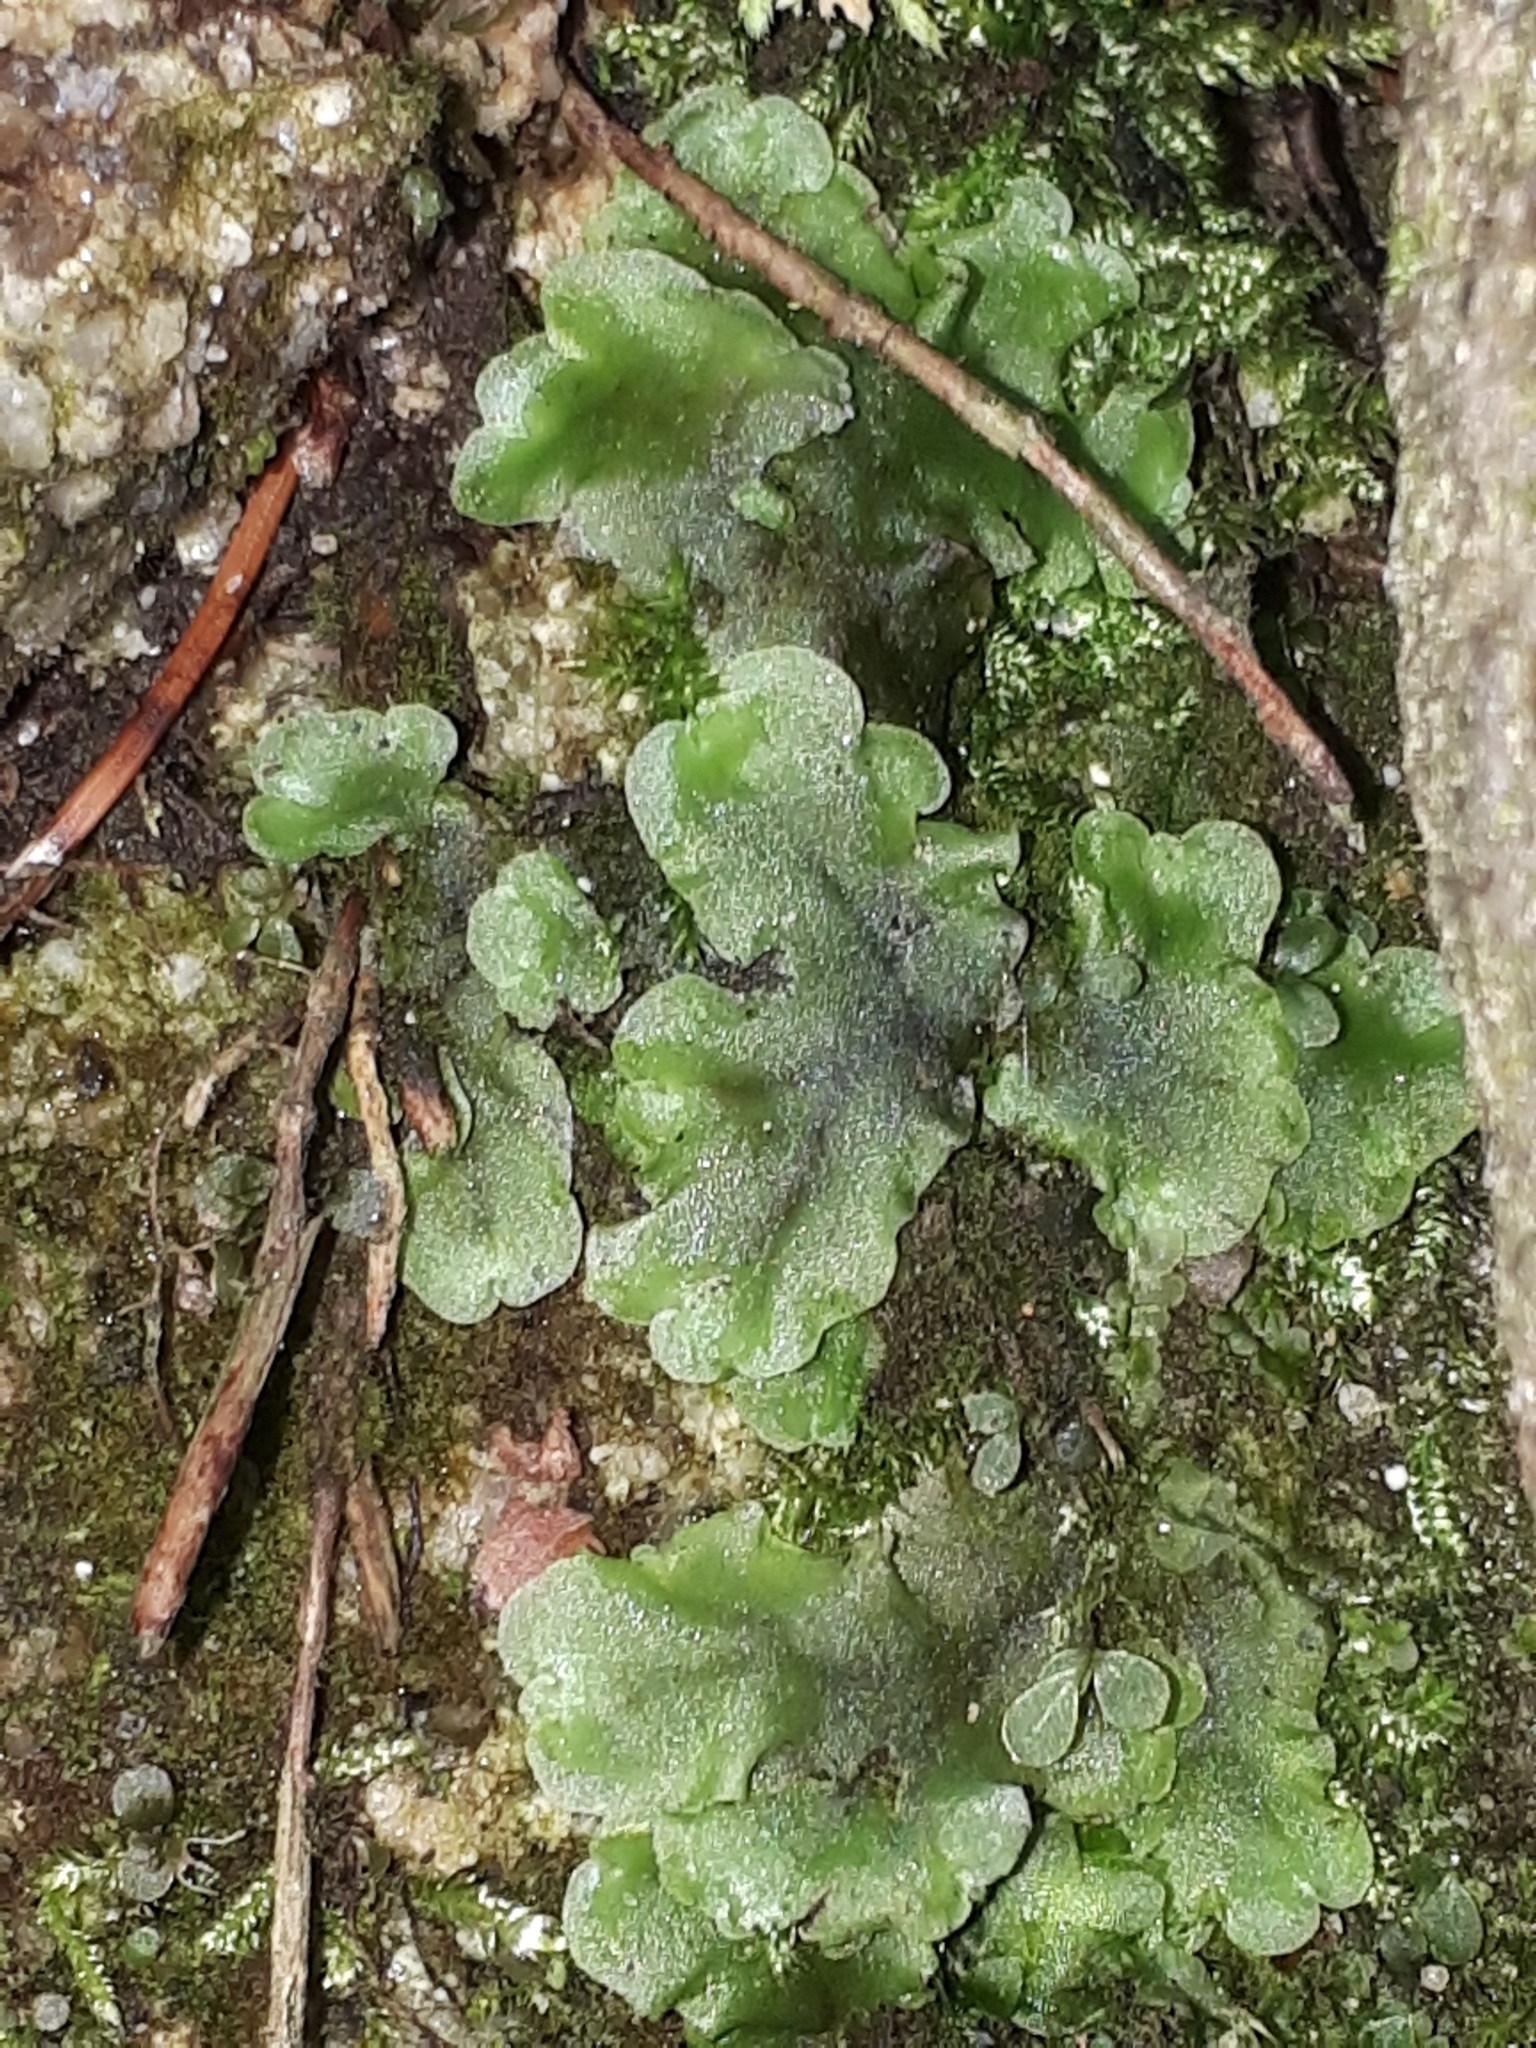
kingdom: Plantae
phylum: Marchantiophyta
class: Jungermanniopsida
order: Pelliales
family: Pelliaceae
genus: Pellia
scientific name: Pellia epiphylla
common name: Common pellia
